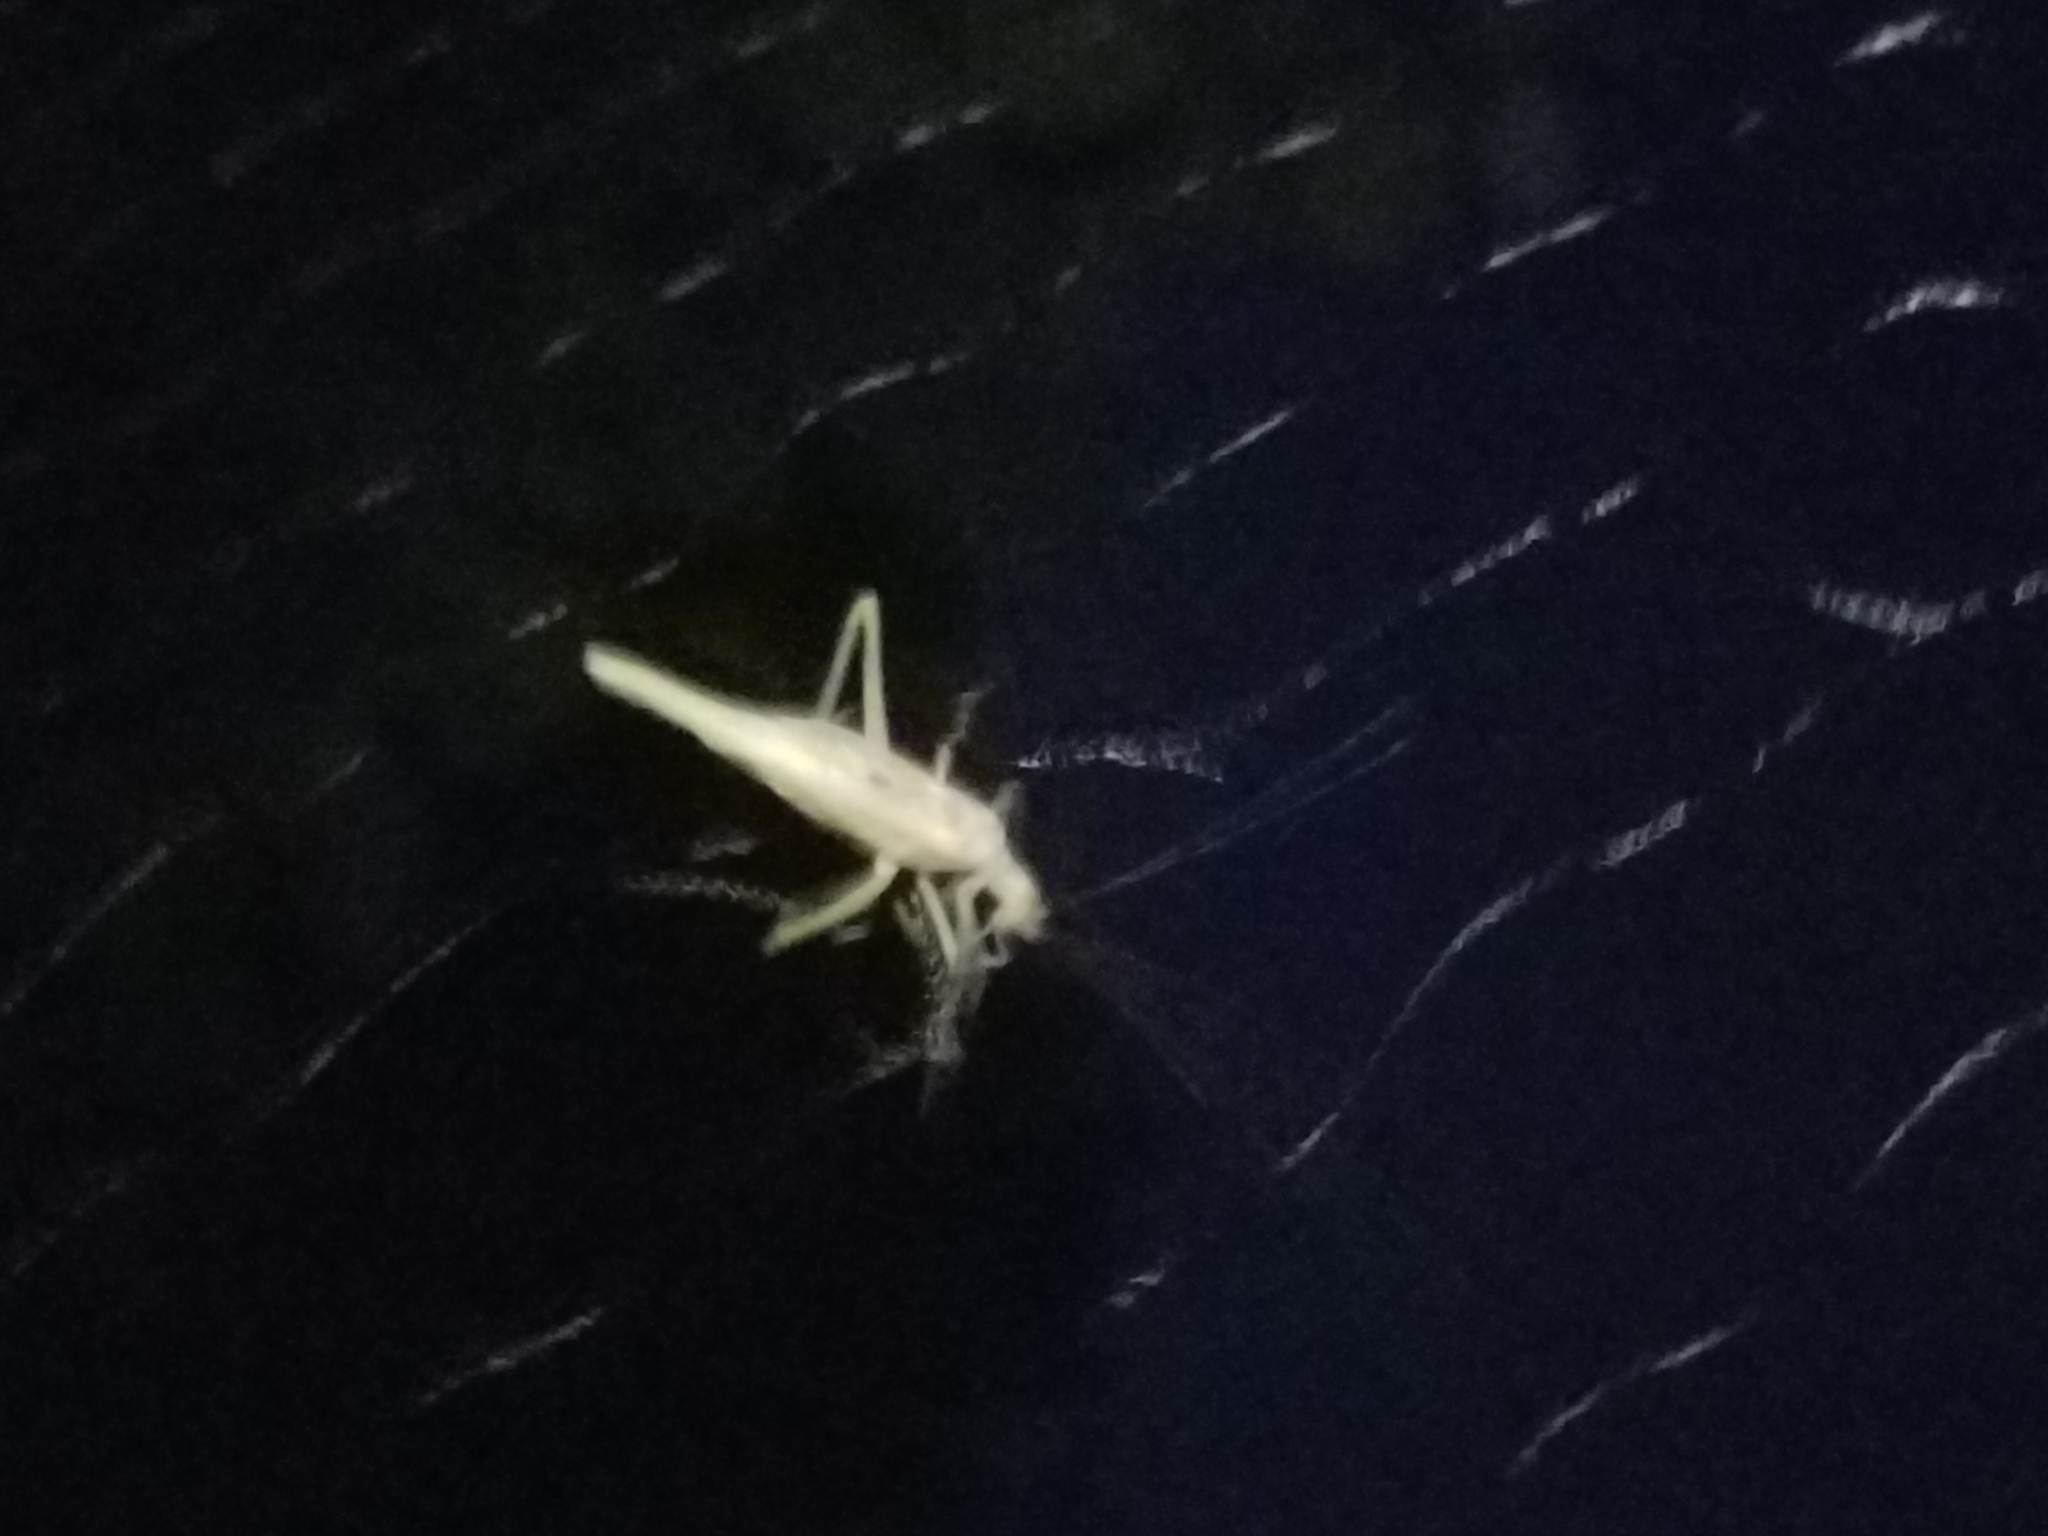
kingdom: Animalia
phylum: Arthropoda
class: Insecta
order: Orthoptera
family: Gryllidae
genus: Neoxabea
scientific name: Neoxabea bipunctata
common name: Two-spotted tree cricket
